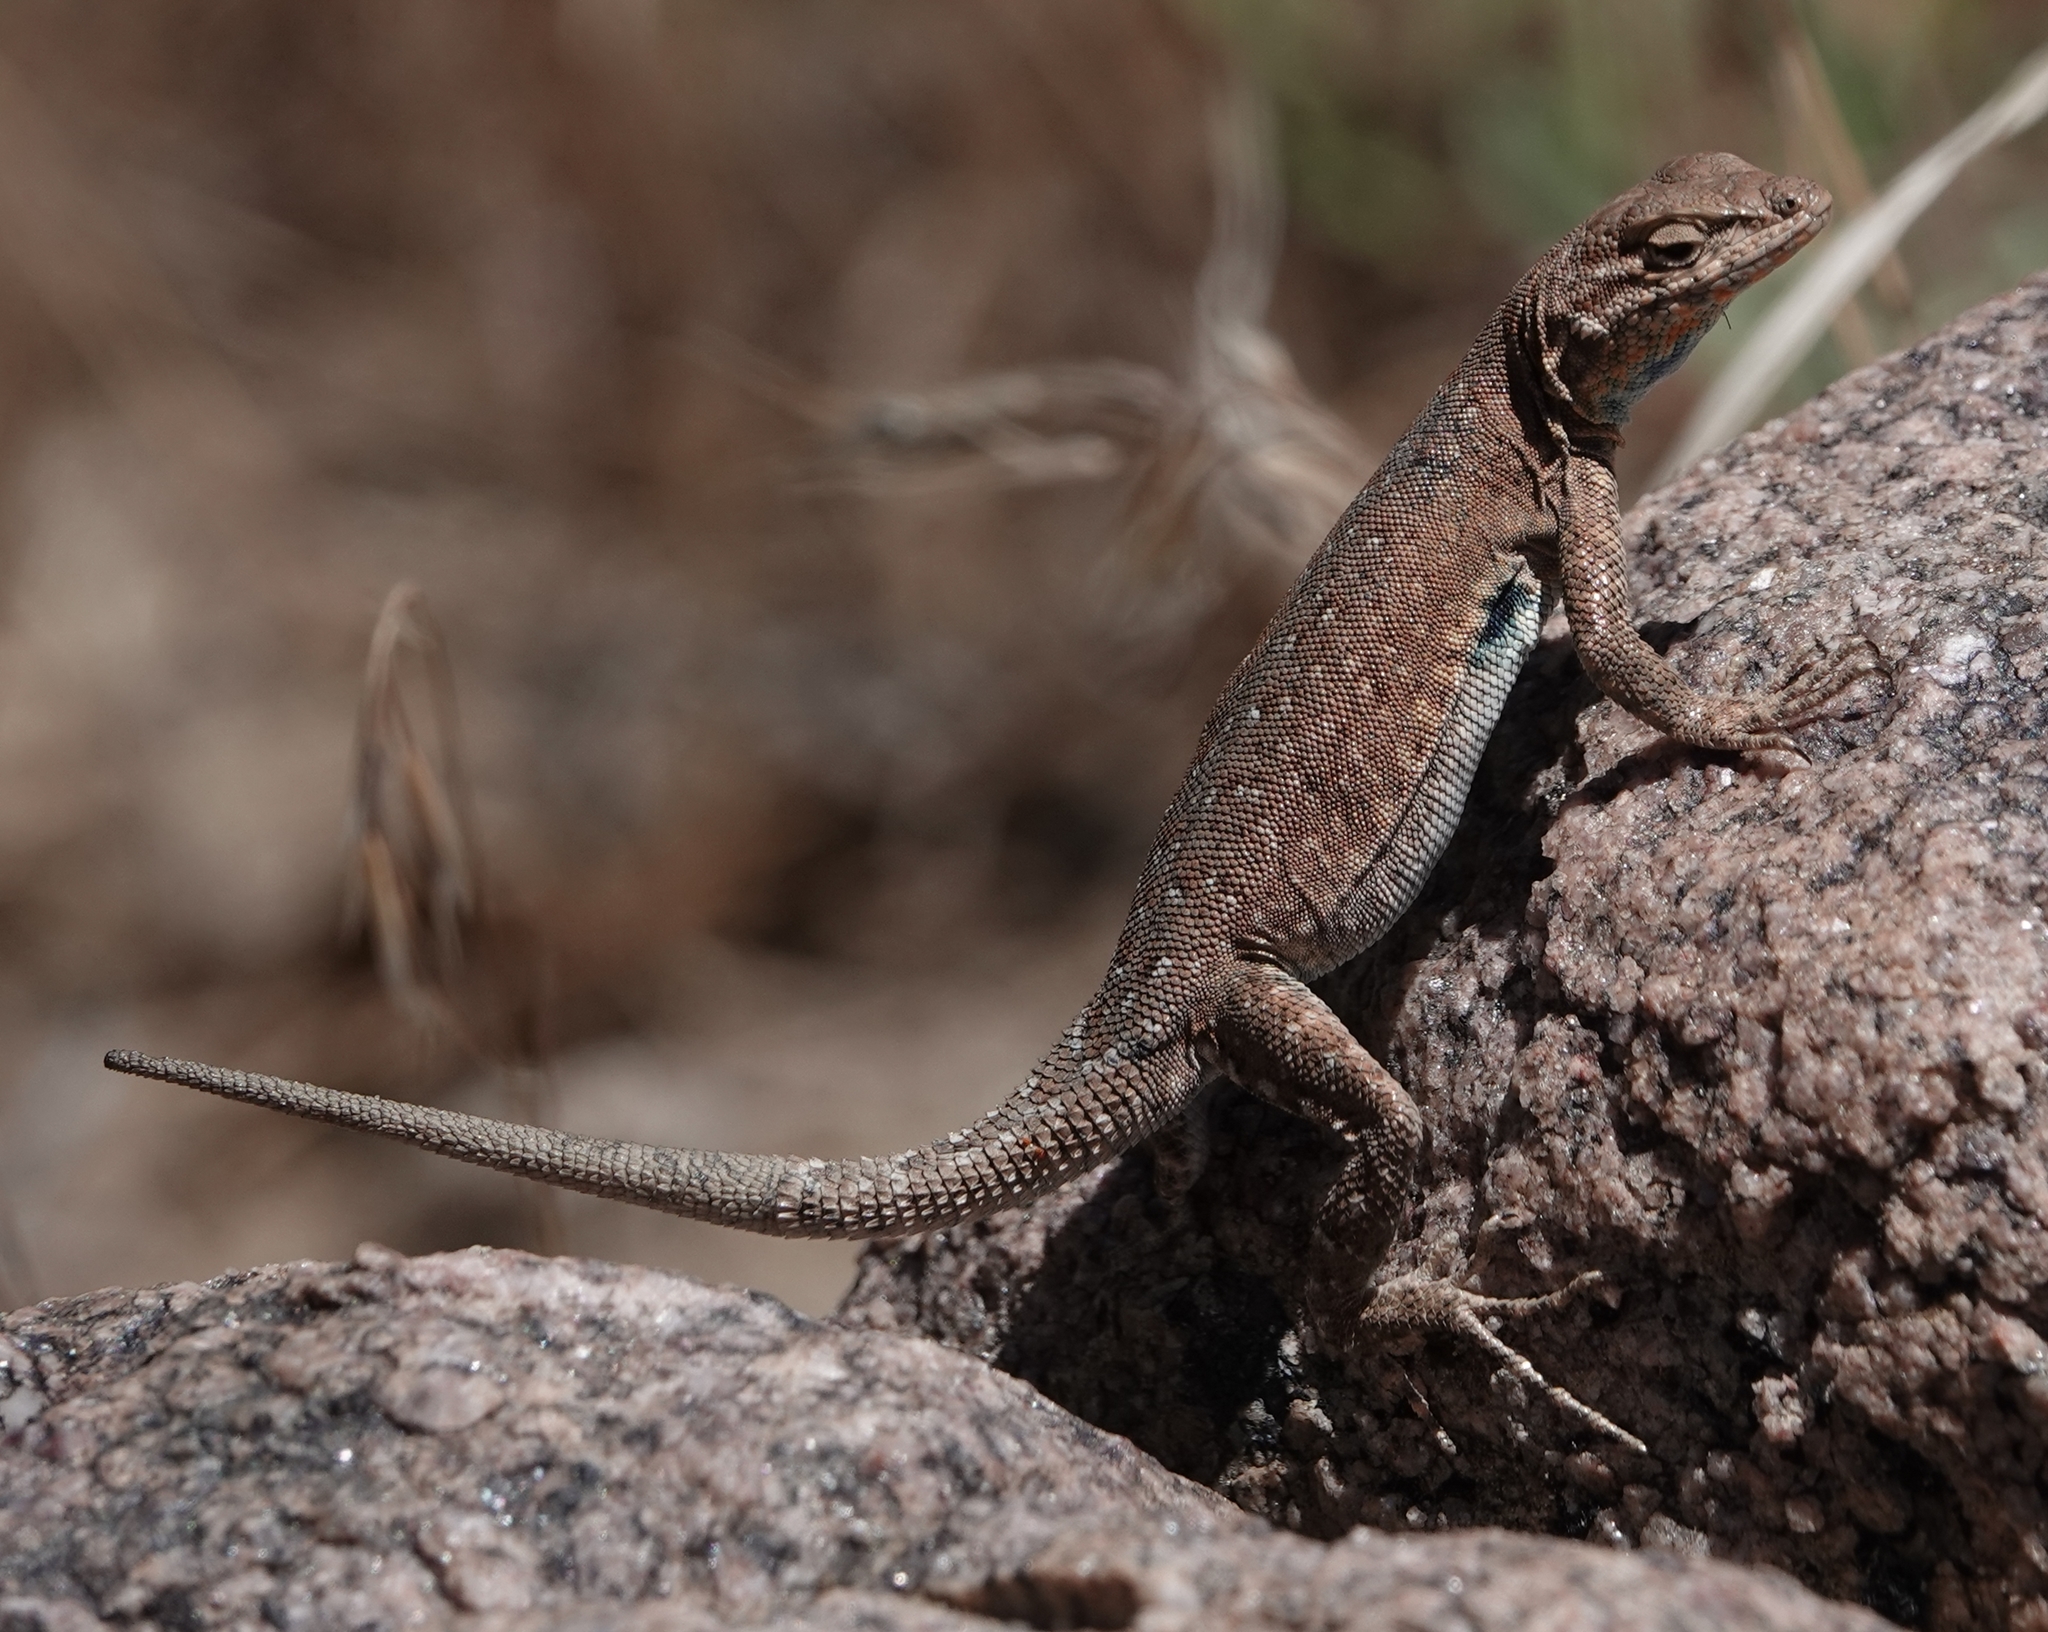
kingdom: Animalia
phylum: Chordata
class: Squamata
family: Phrynosomatidae
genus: Uta
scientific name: Uta stansburiana
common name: Side-blotched lizard
